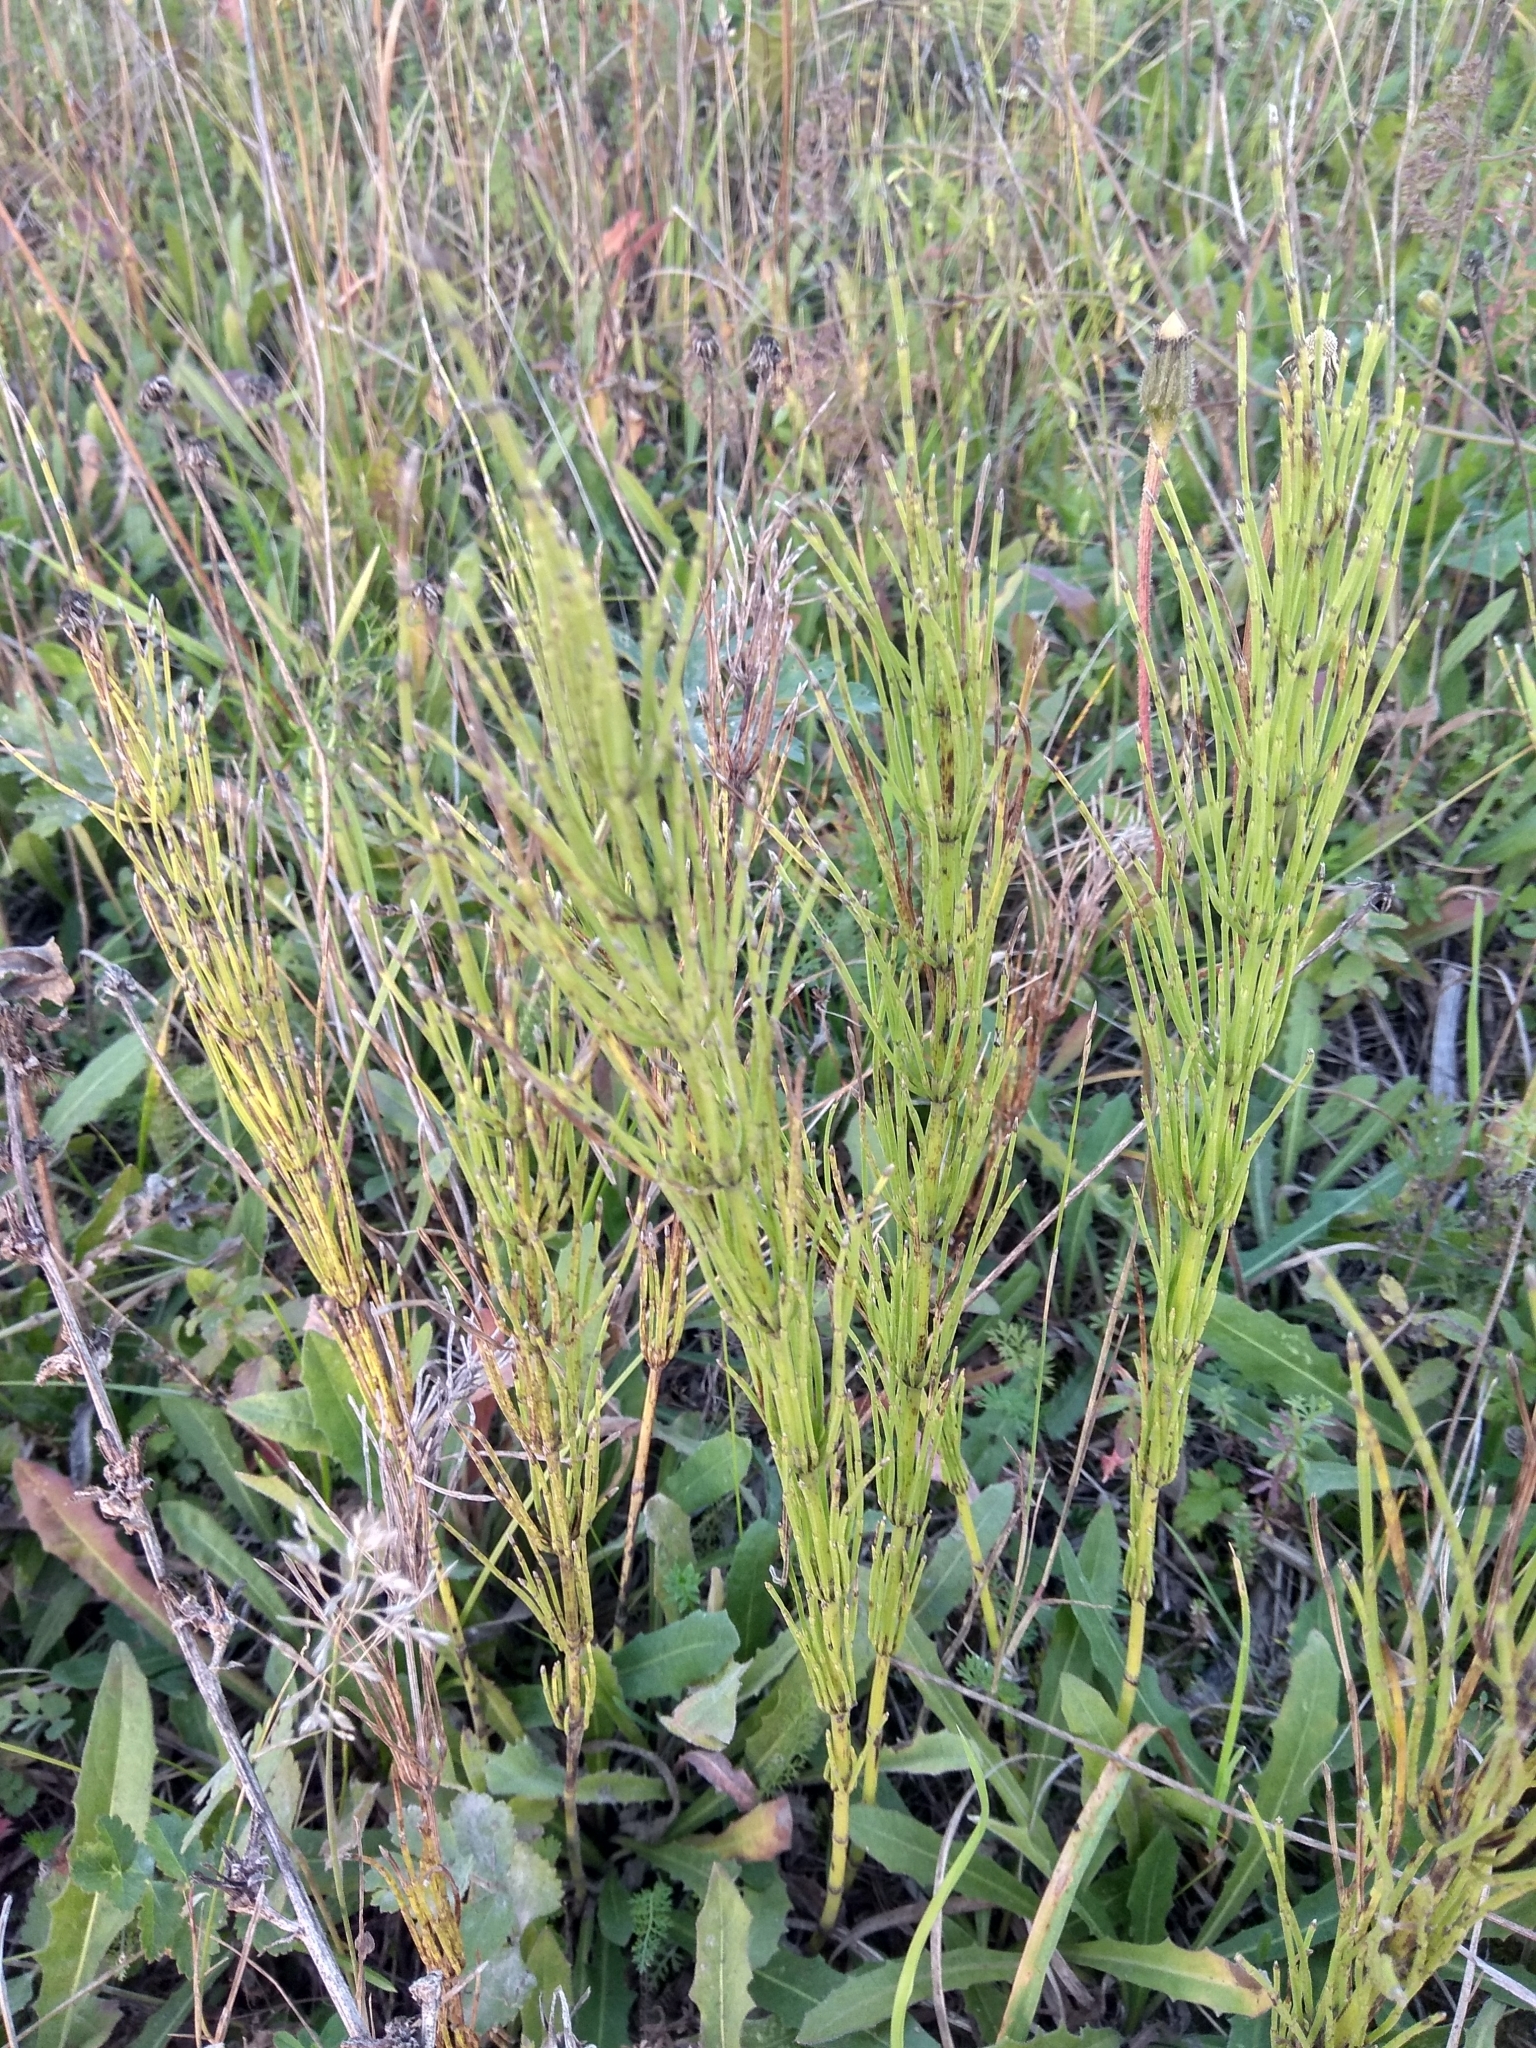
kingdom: Plantae
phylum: Tracheophyta
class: Polypodiopsida
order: Equisetales
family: Equisetaceae
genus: Equisetum
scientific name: Equisetum arvense
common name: Field horsetail
